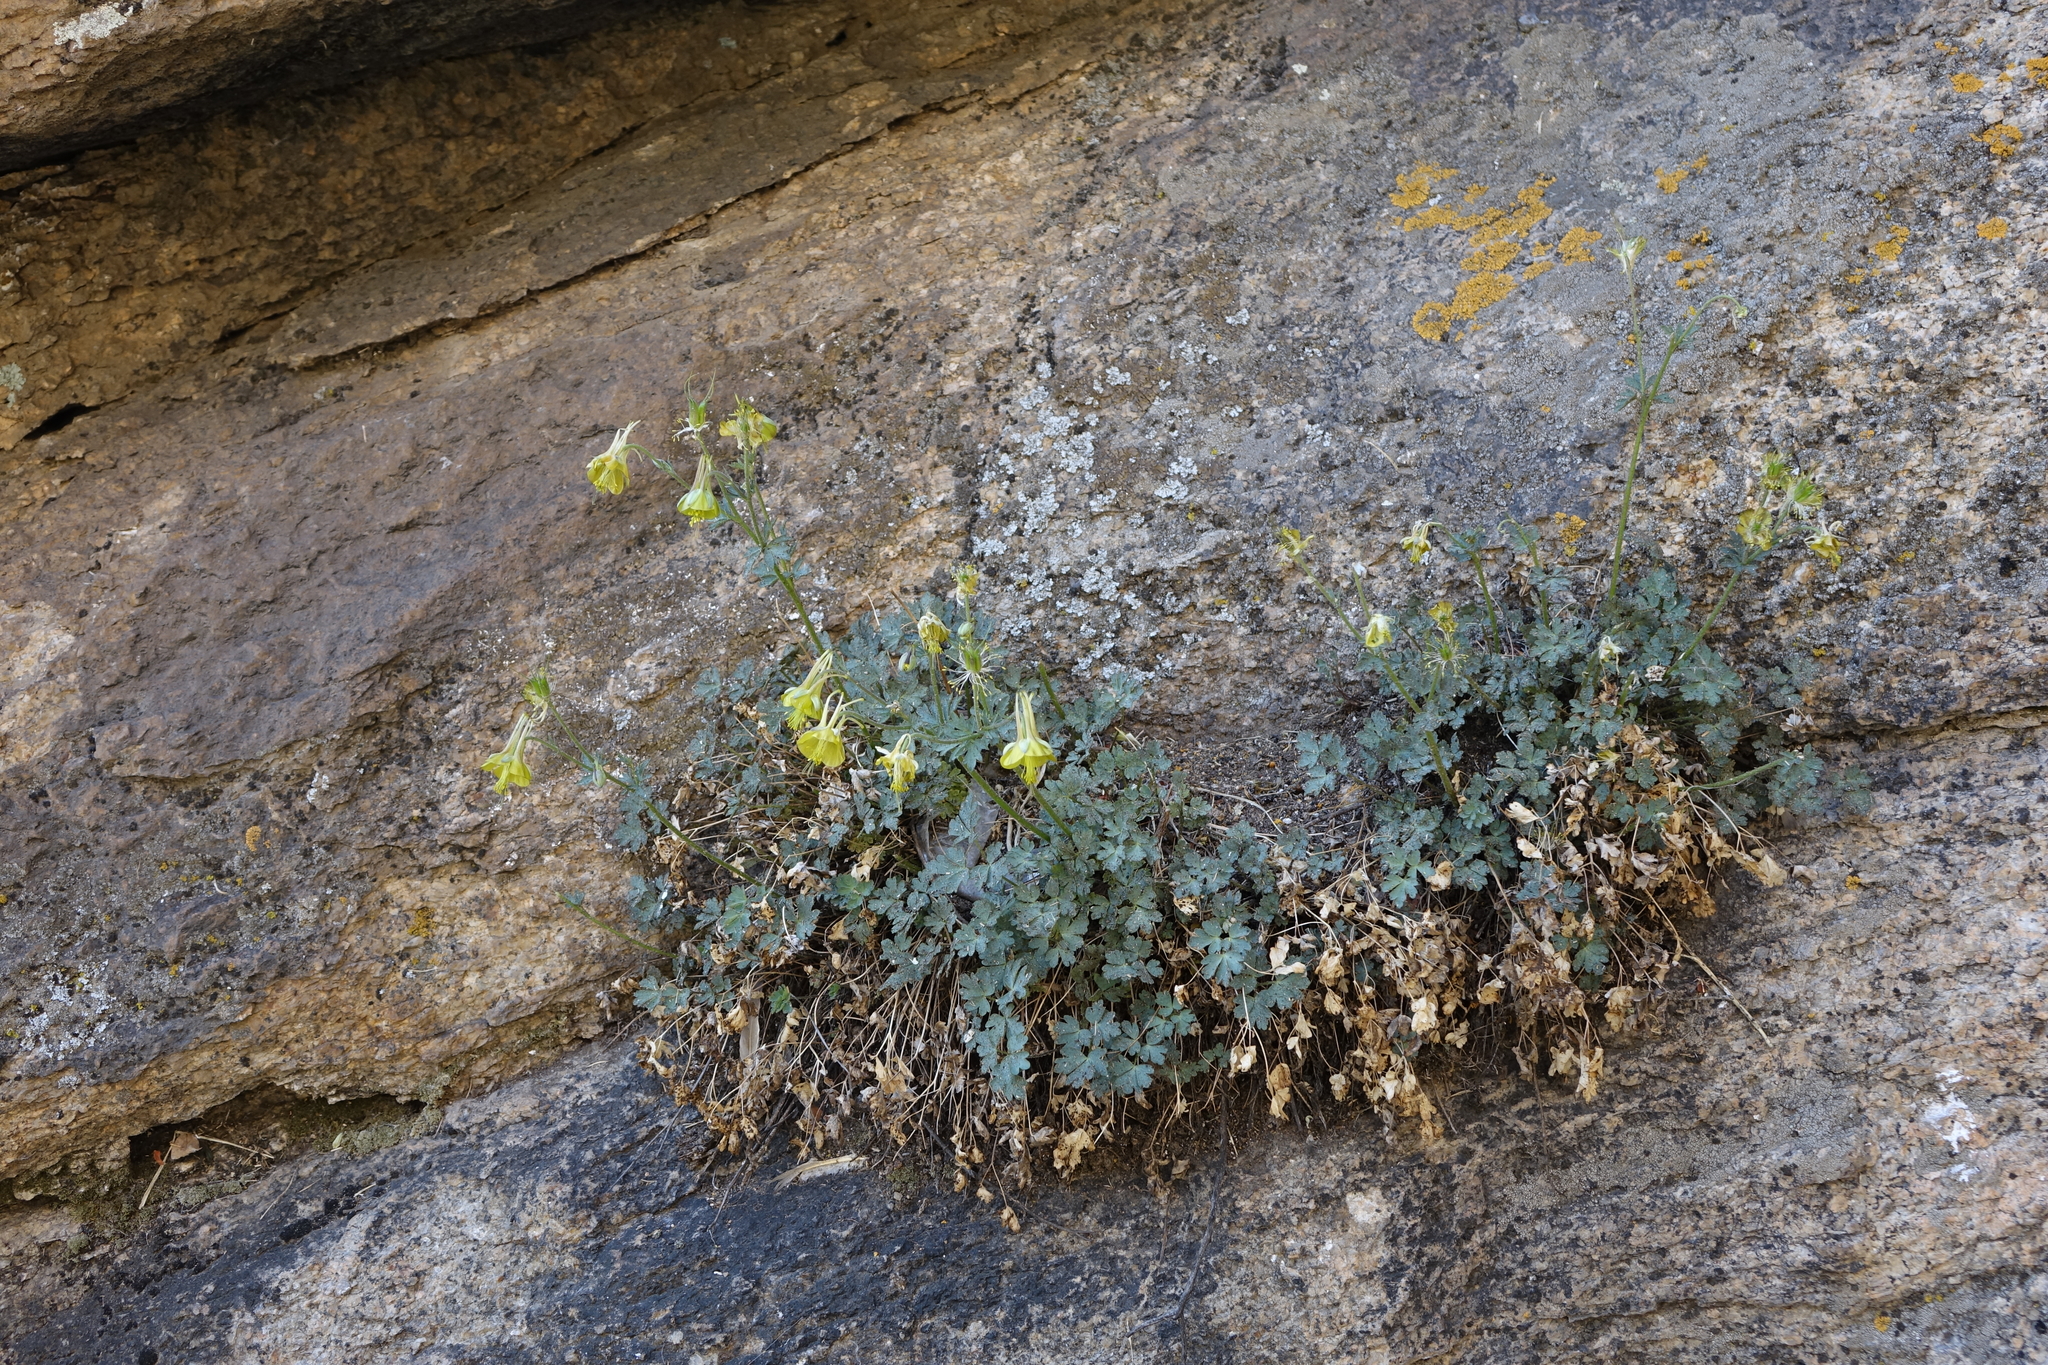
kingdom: Plantae
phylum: Tracheophyta
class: Magnoliopsida
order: Ranunculales
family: Ranunculaceae
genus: Aquilegia
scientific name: Aquilegia viridiflora
